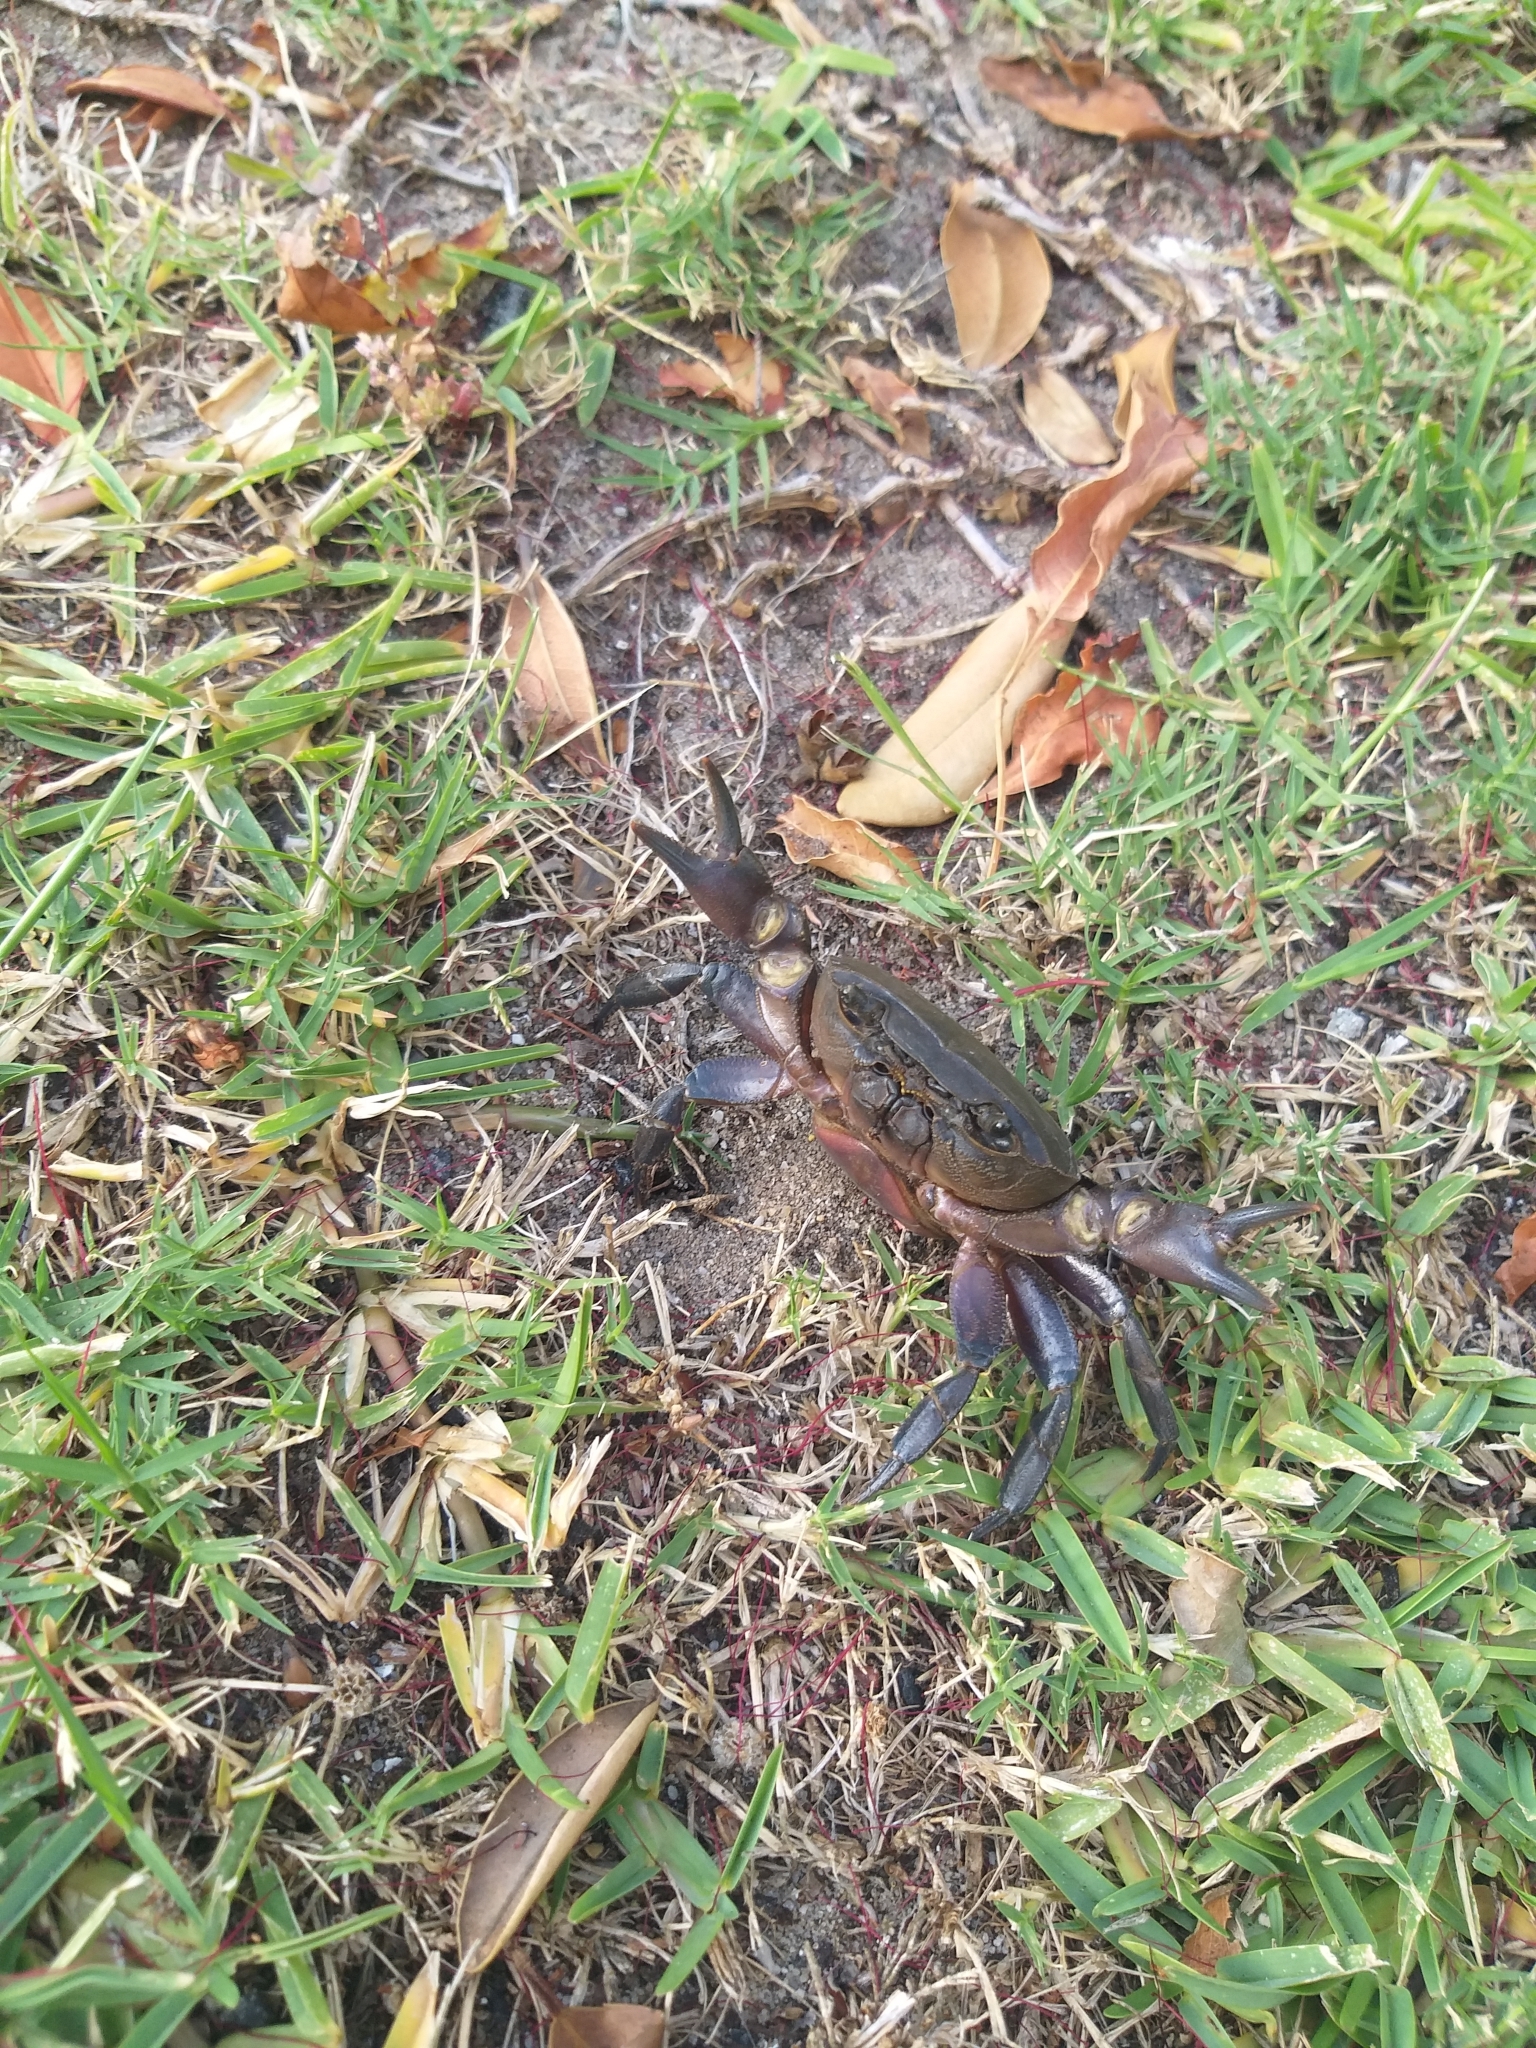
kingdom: Animalia
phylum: Arthropoda
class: Malacostraca
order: Decapoda
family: Potamonautidae
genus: Potamonautes
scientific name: Potamonautes perlatus
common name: Cape river crab
